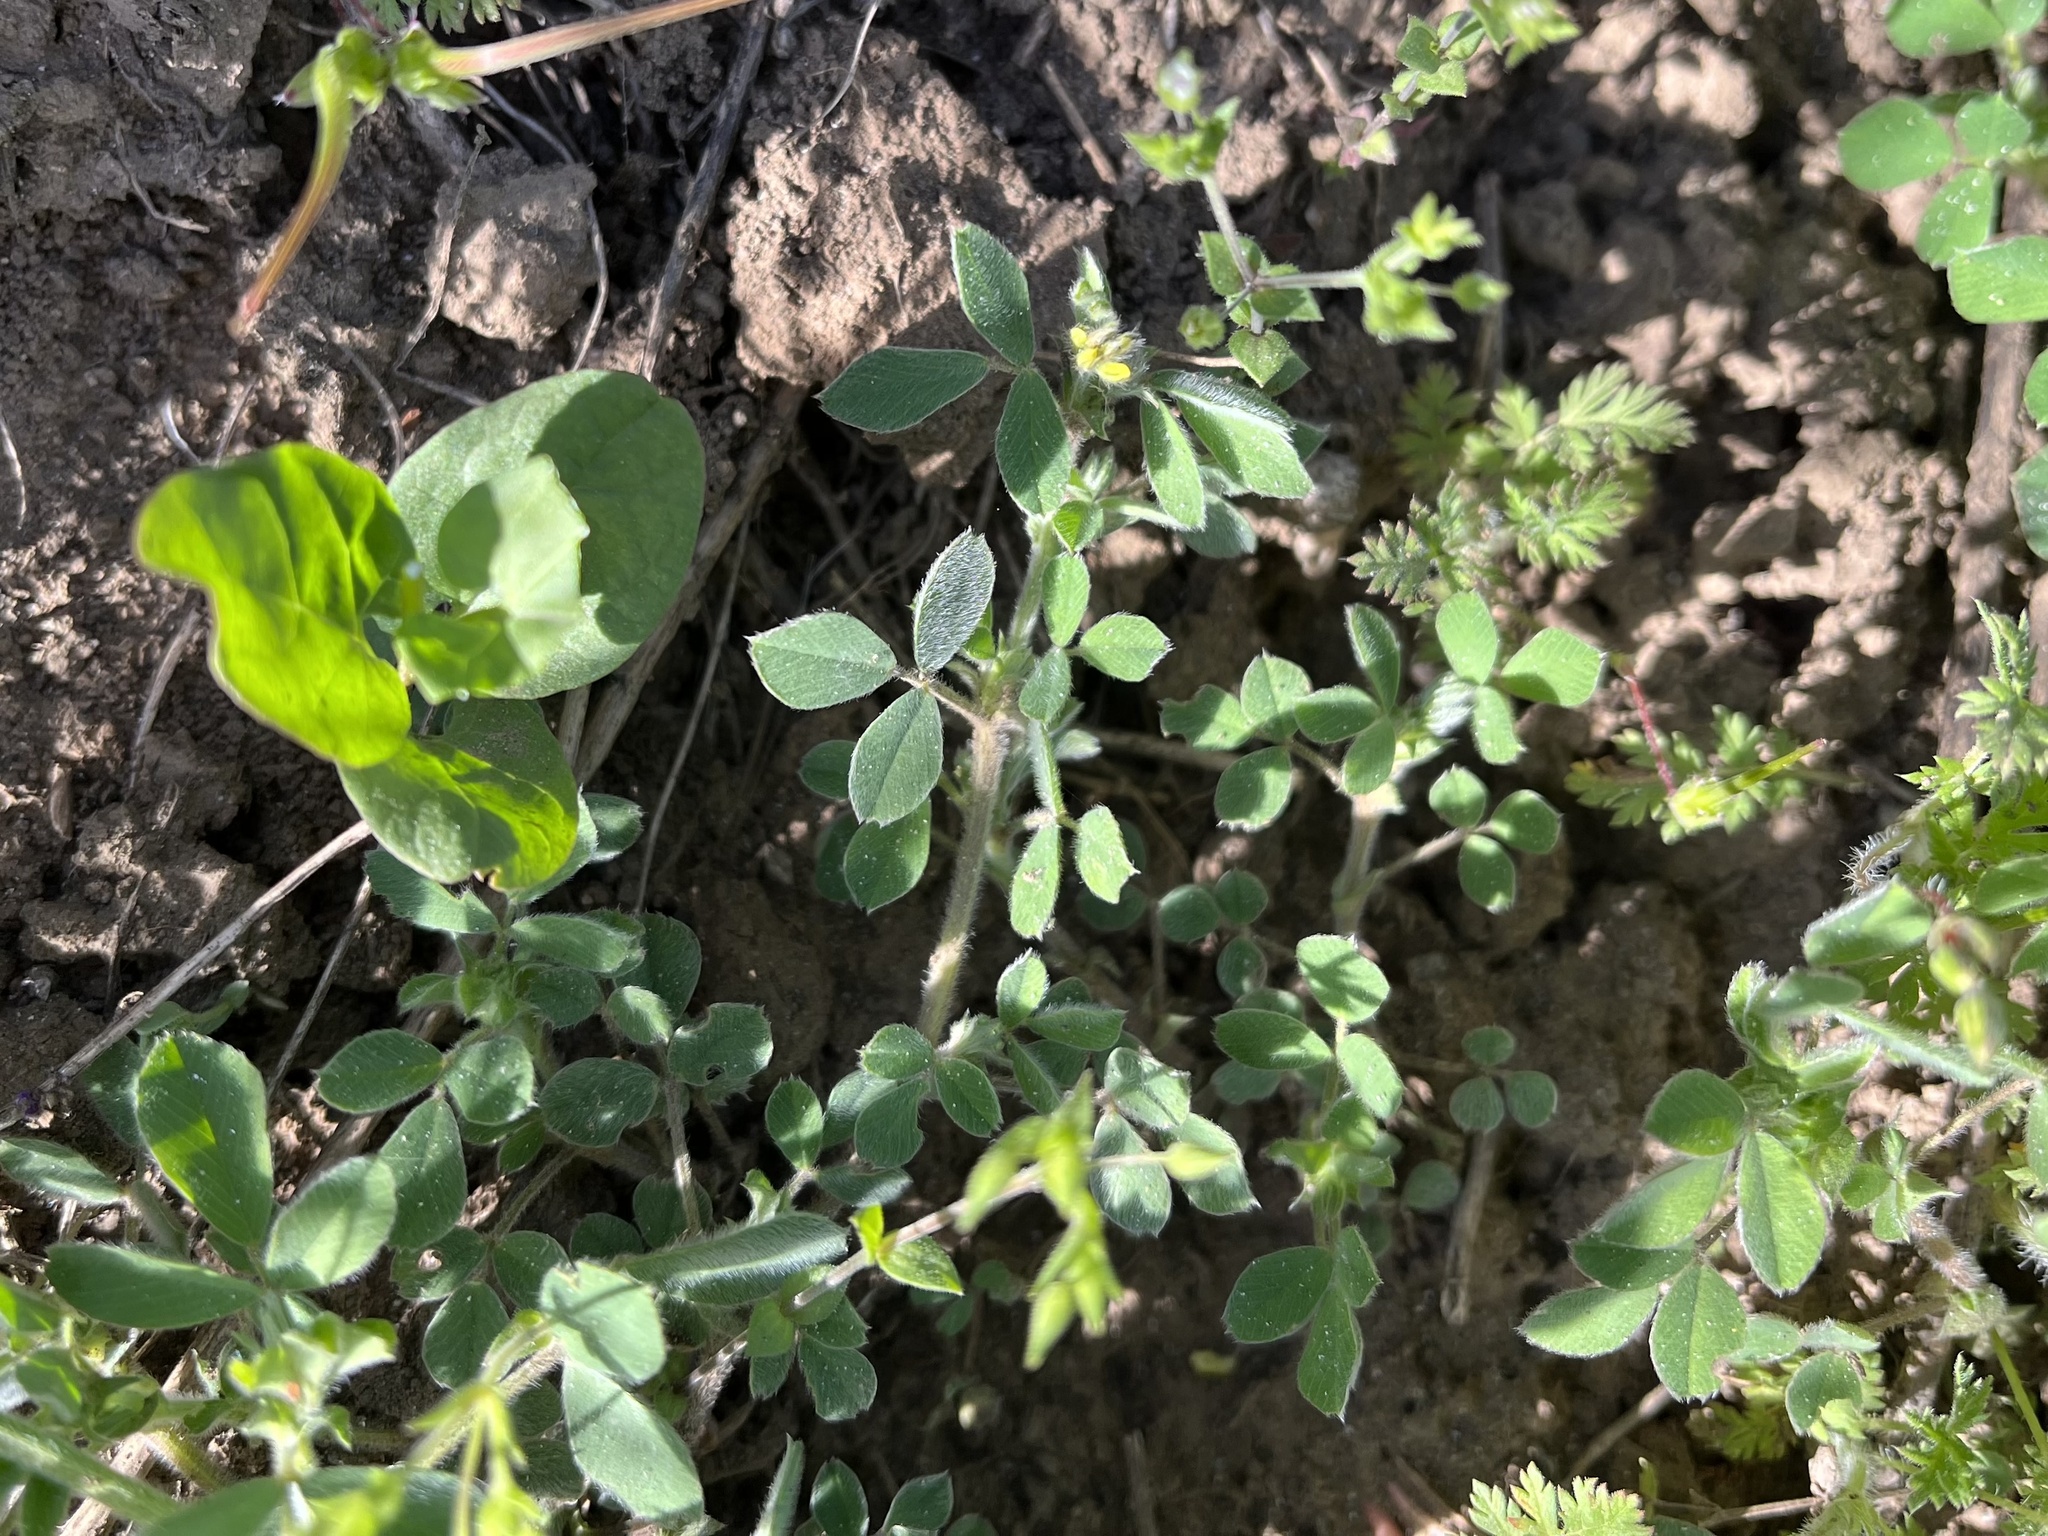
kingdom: Plantae
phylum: Tracheophyta
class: Magnoliopsida
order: Fabales
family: Fabaceae
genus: Medicago
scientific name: Medicago minima
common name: Little bur-clover
